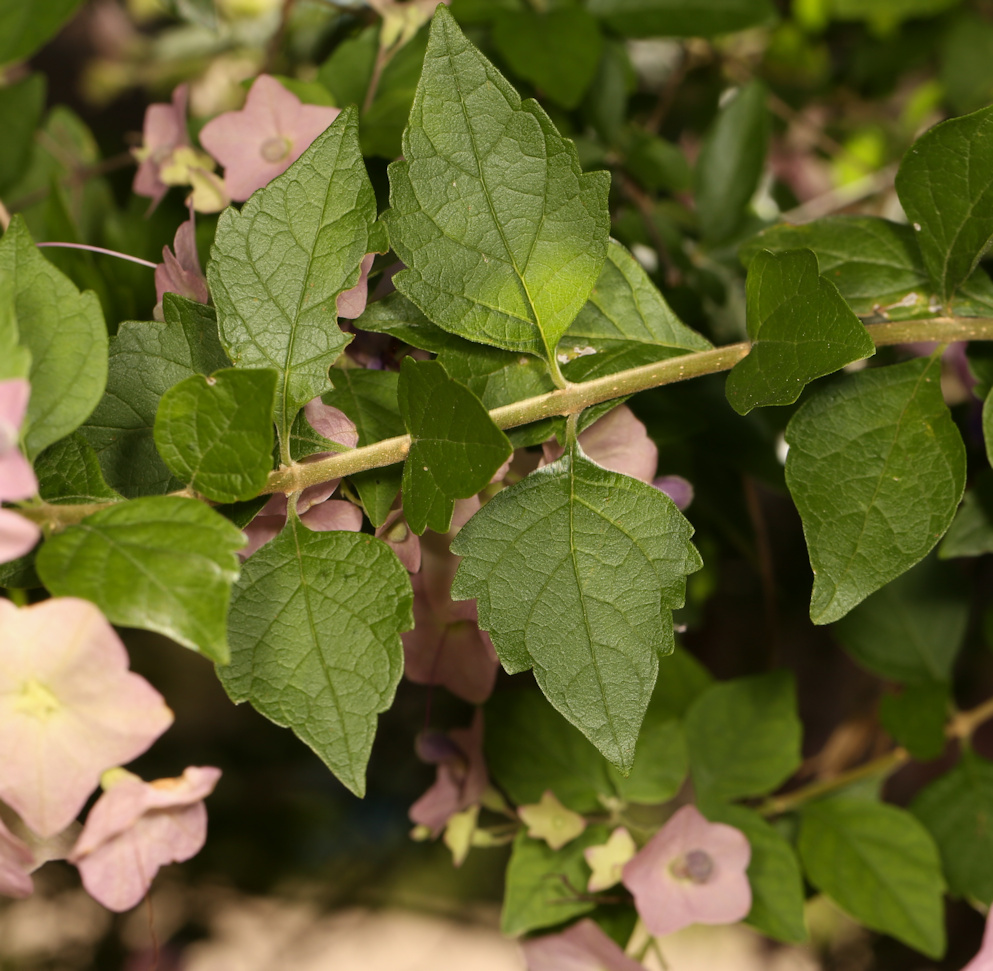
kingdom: Plantae
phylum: Tracheophyta
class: Magnoliopsida
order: Lamiales
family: Lamiaceae
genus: Karomia
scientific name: Karomia speciosa
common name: Southern chinese-hats
